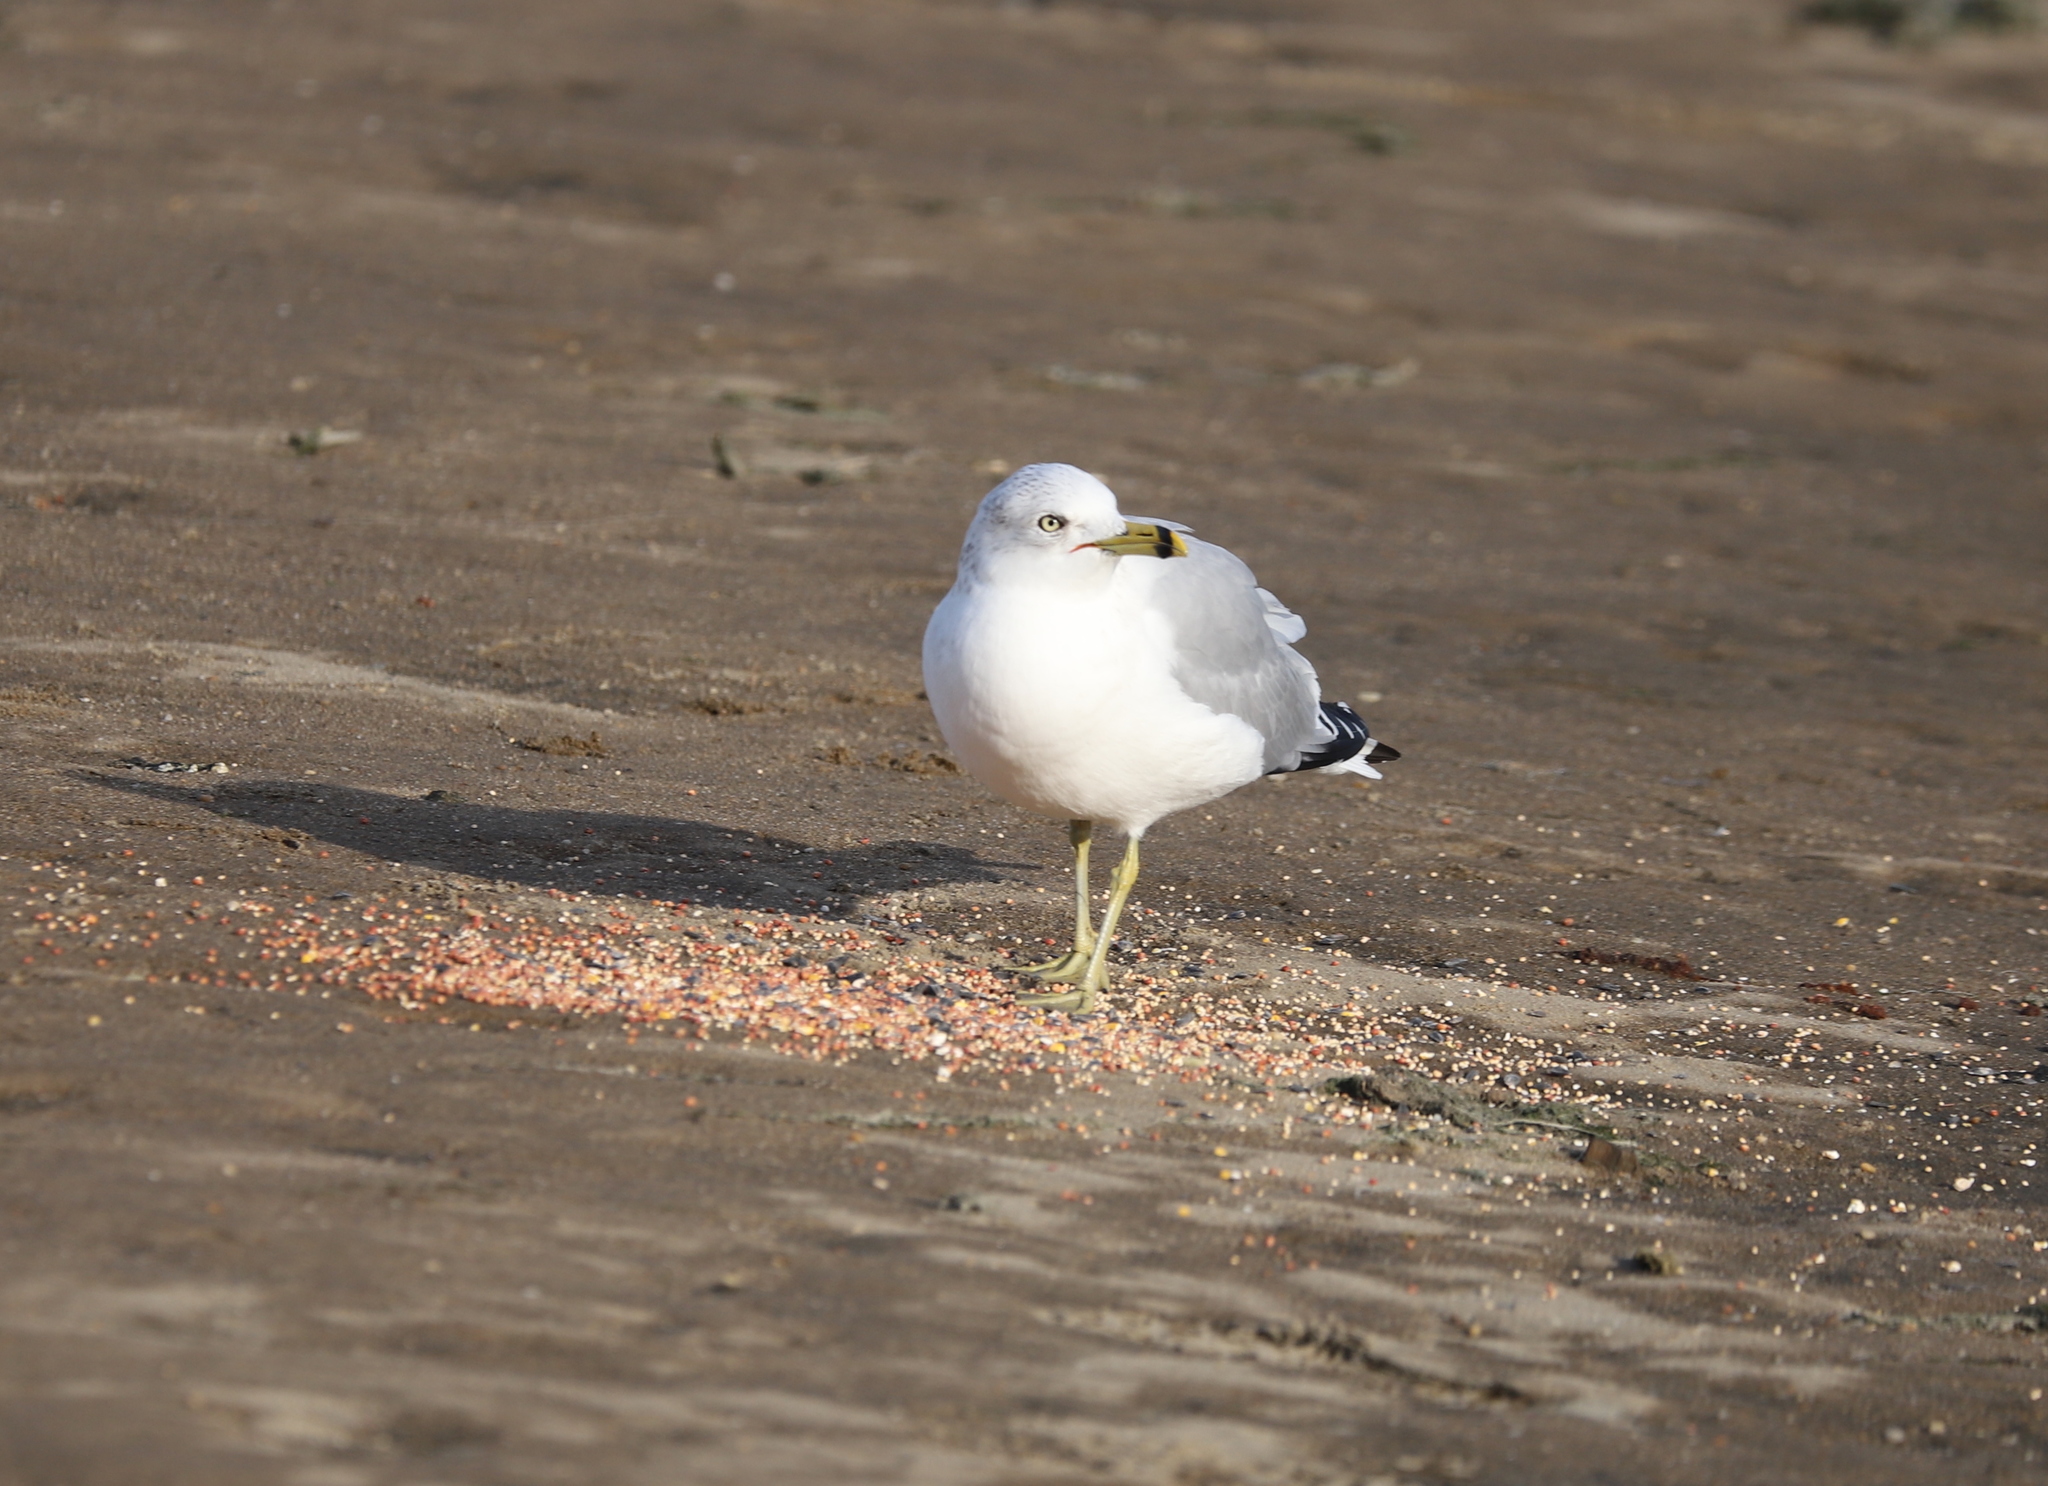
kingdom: Animalia
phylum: Chordata
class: Aves
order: Charadriiformes
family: Laridae
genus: Larus
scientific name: Larus delawarensis
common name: Ring-billed gull
